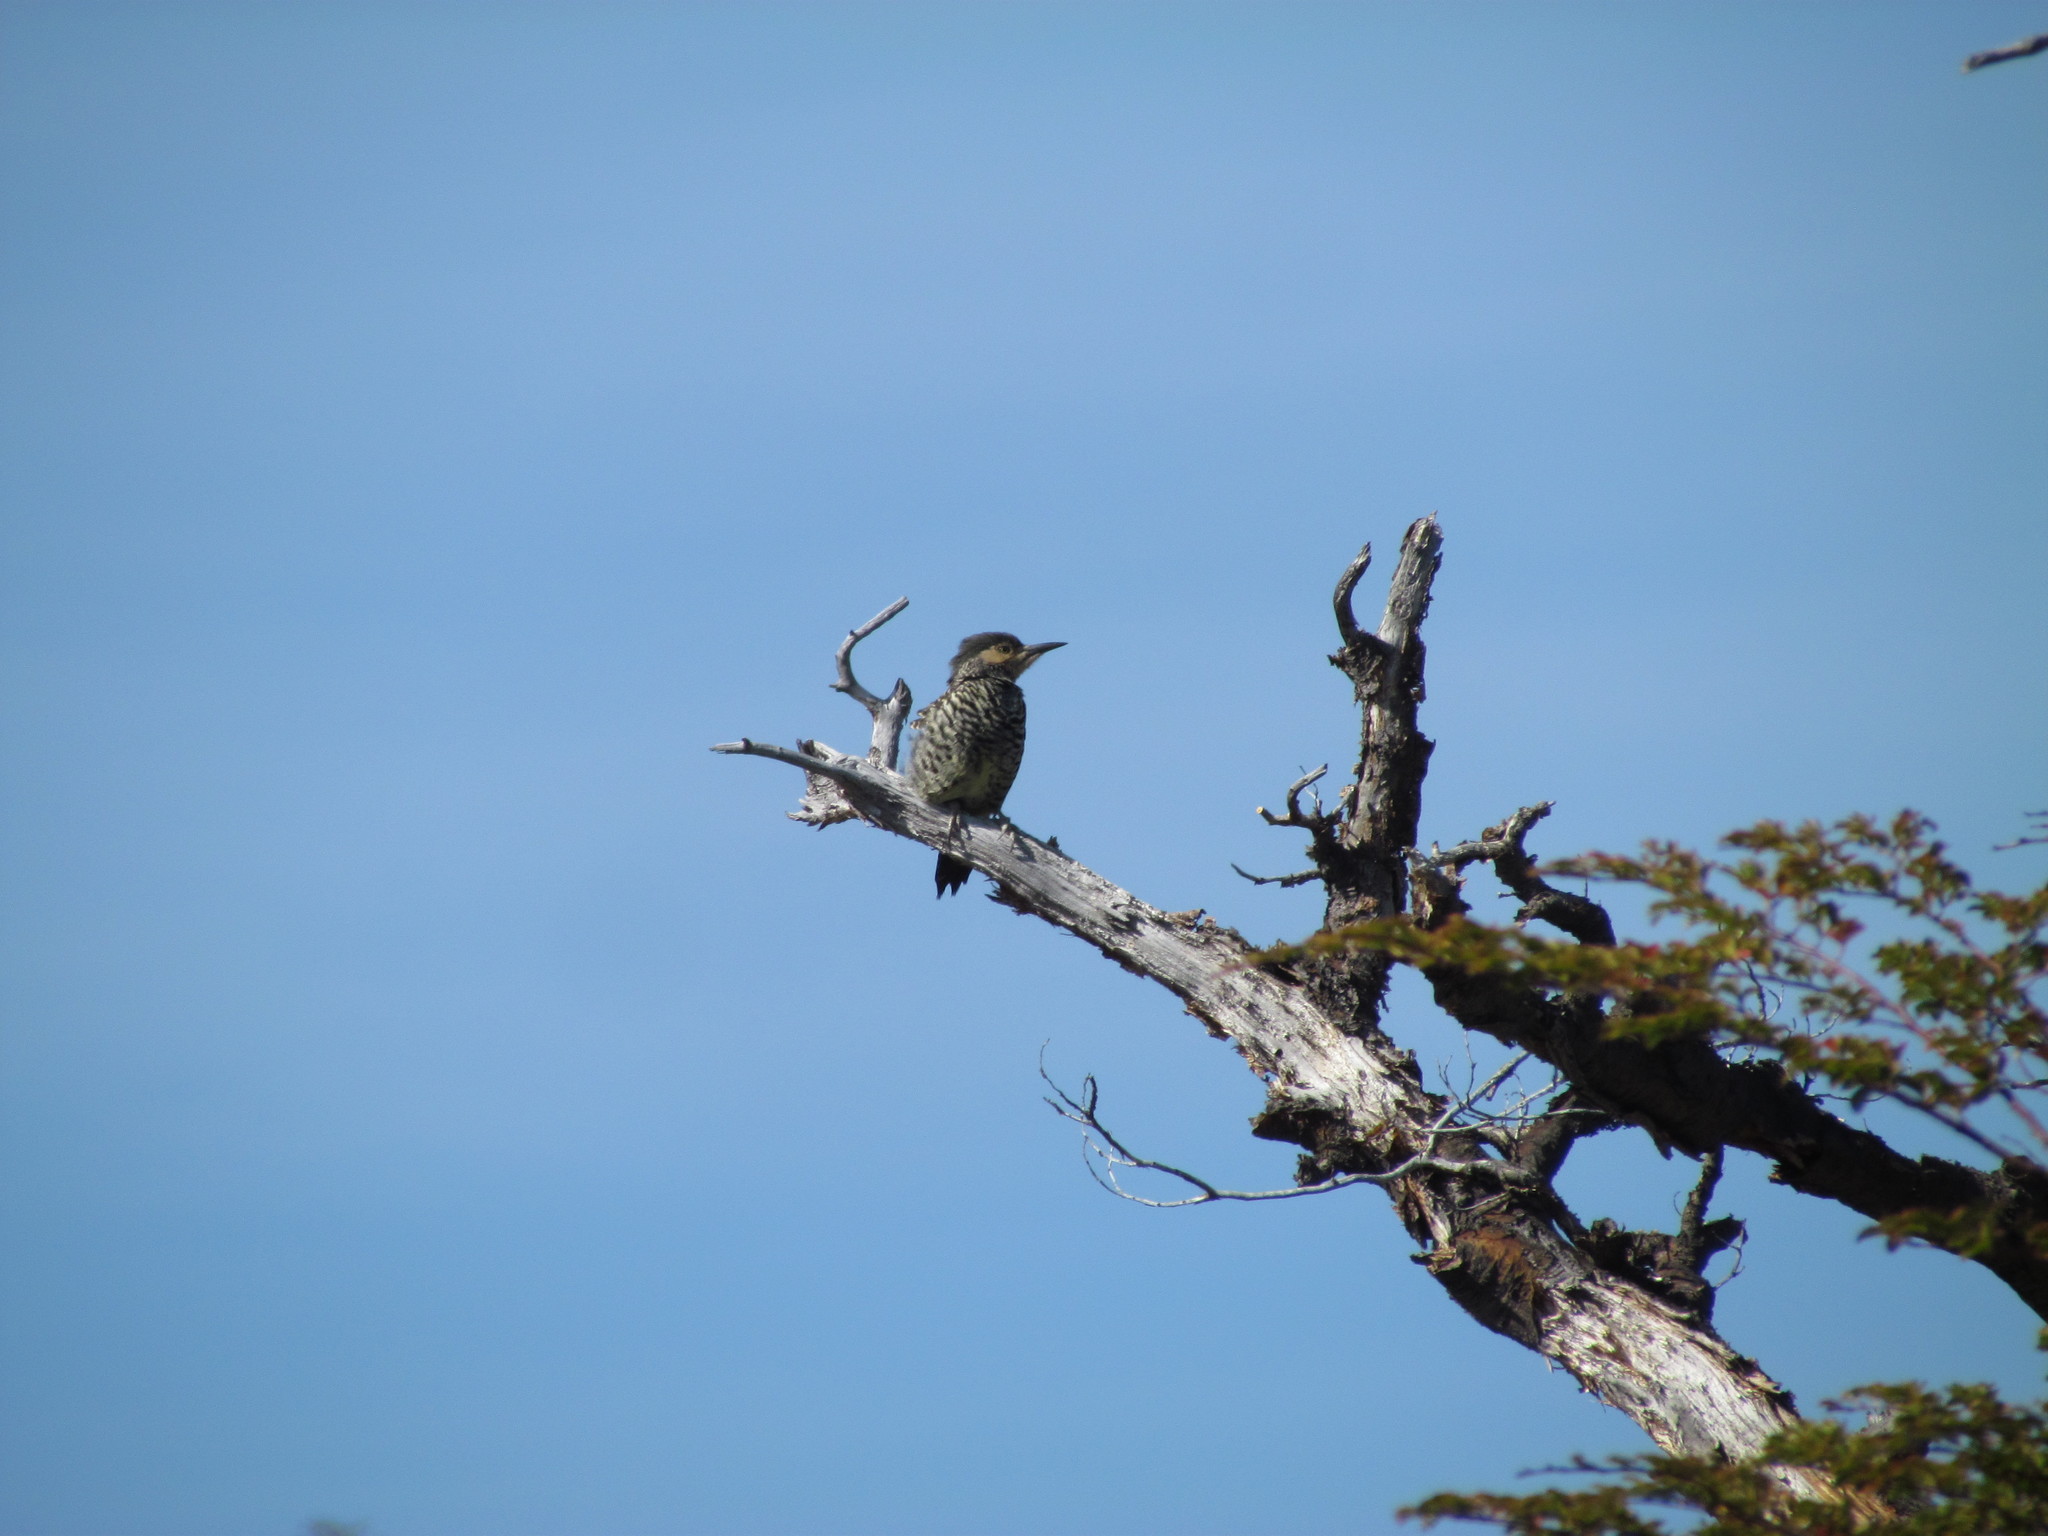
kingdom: Animalia
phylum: Chordata
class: Aves
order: Piciformes
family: Picidae
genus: Colaptes
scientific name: Colaptes pitius
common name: Chilean flicker
